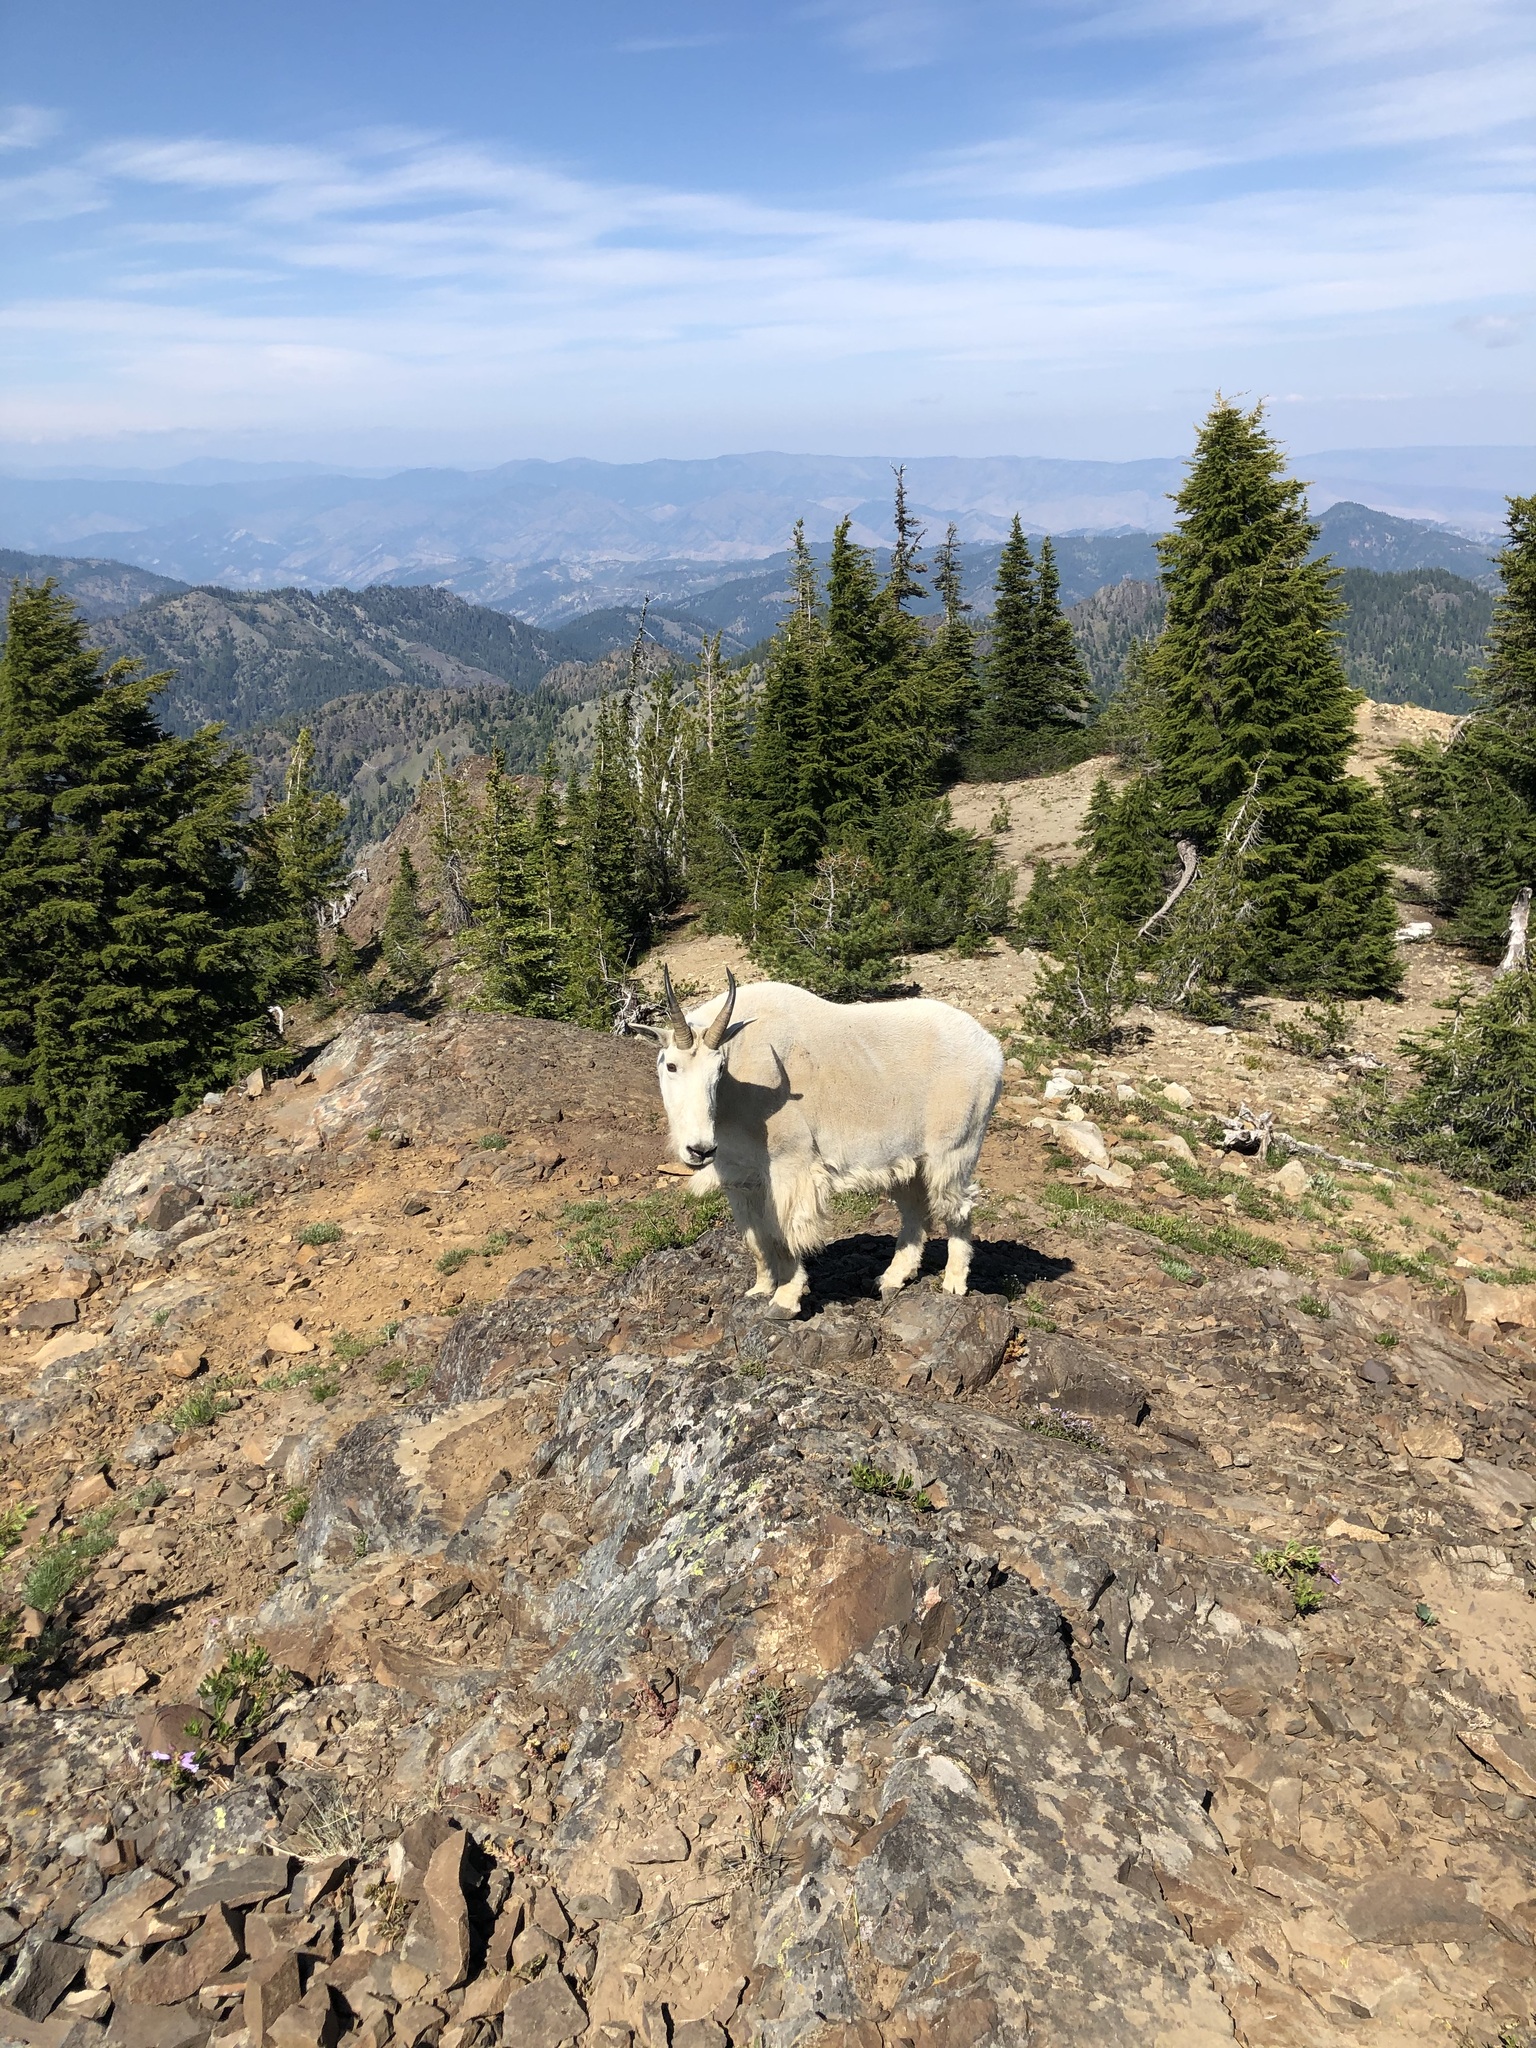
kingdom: Animalia
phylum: Chordata
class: Mammalia
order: Artiodactyla
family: Bovidae
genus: Oreamnos
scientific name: Oreamnos americanus
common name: Mountain goat
